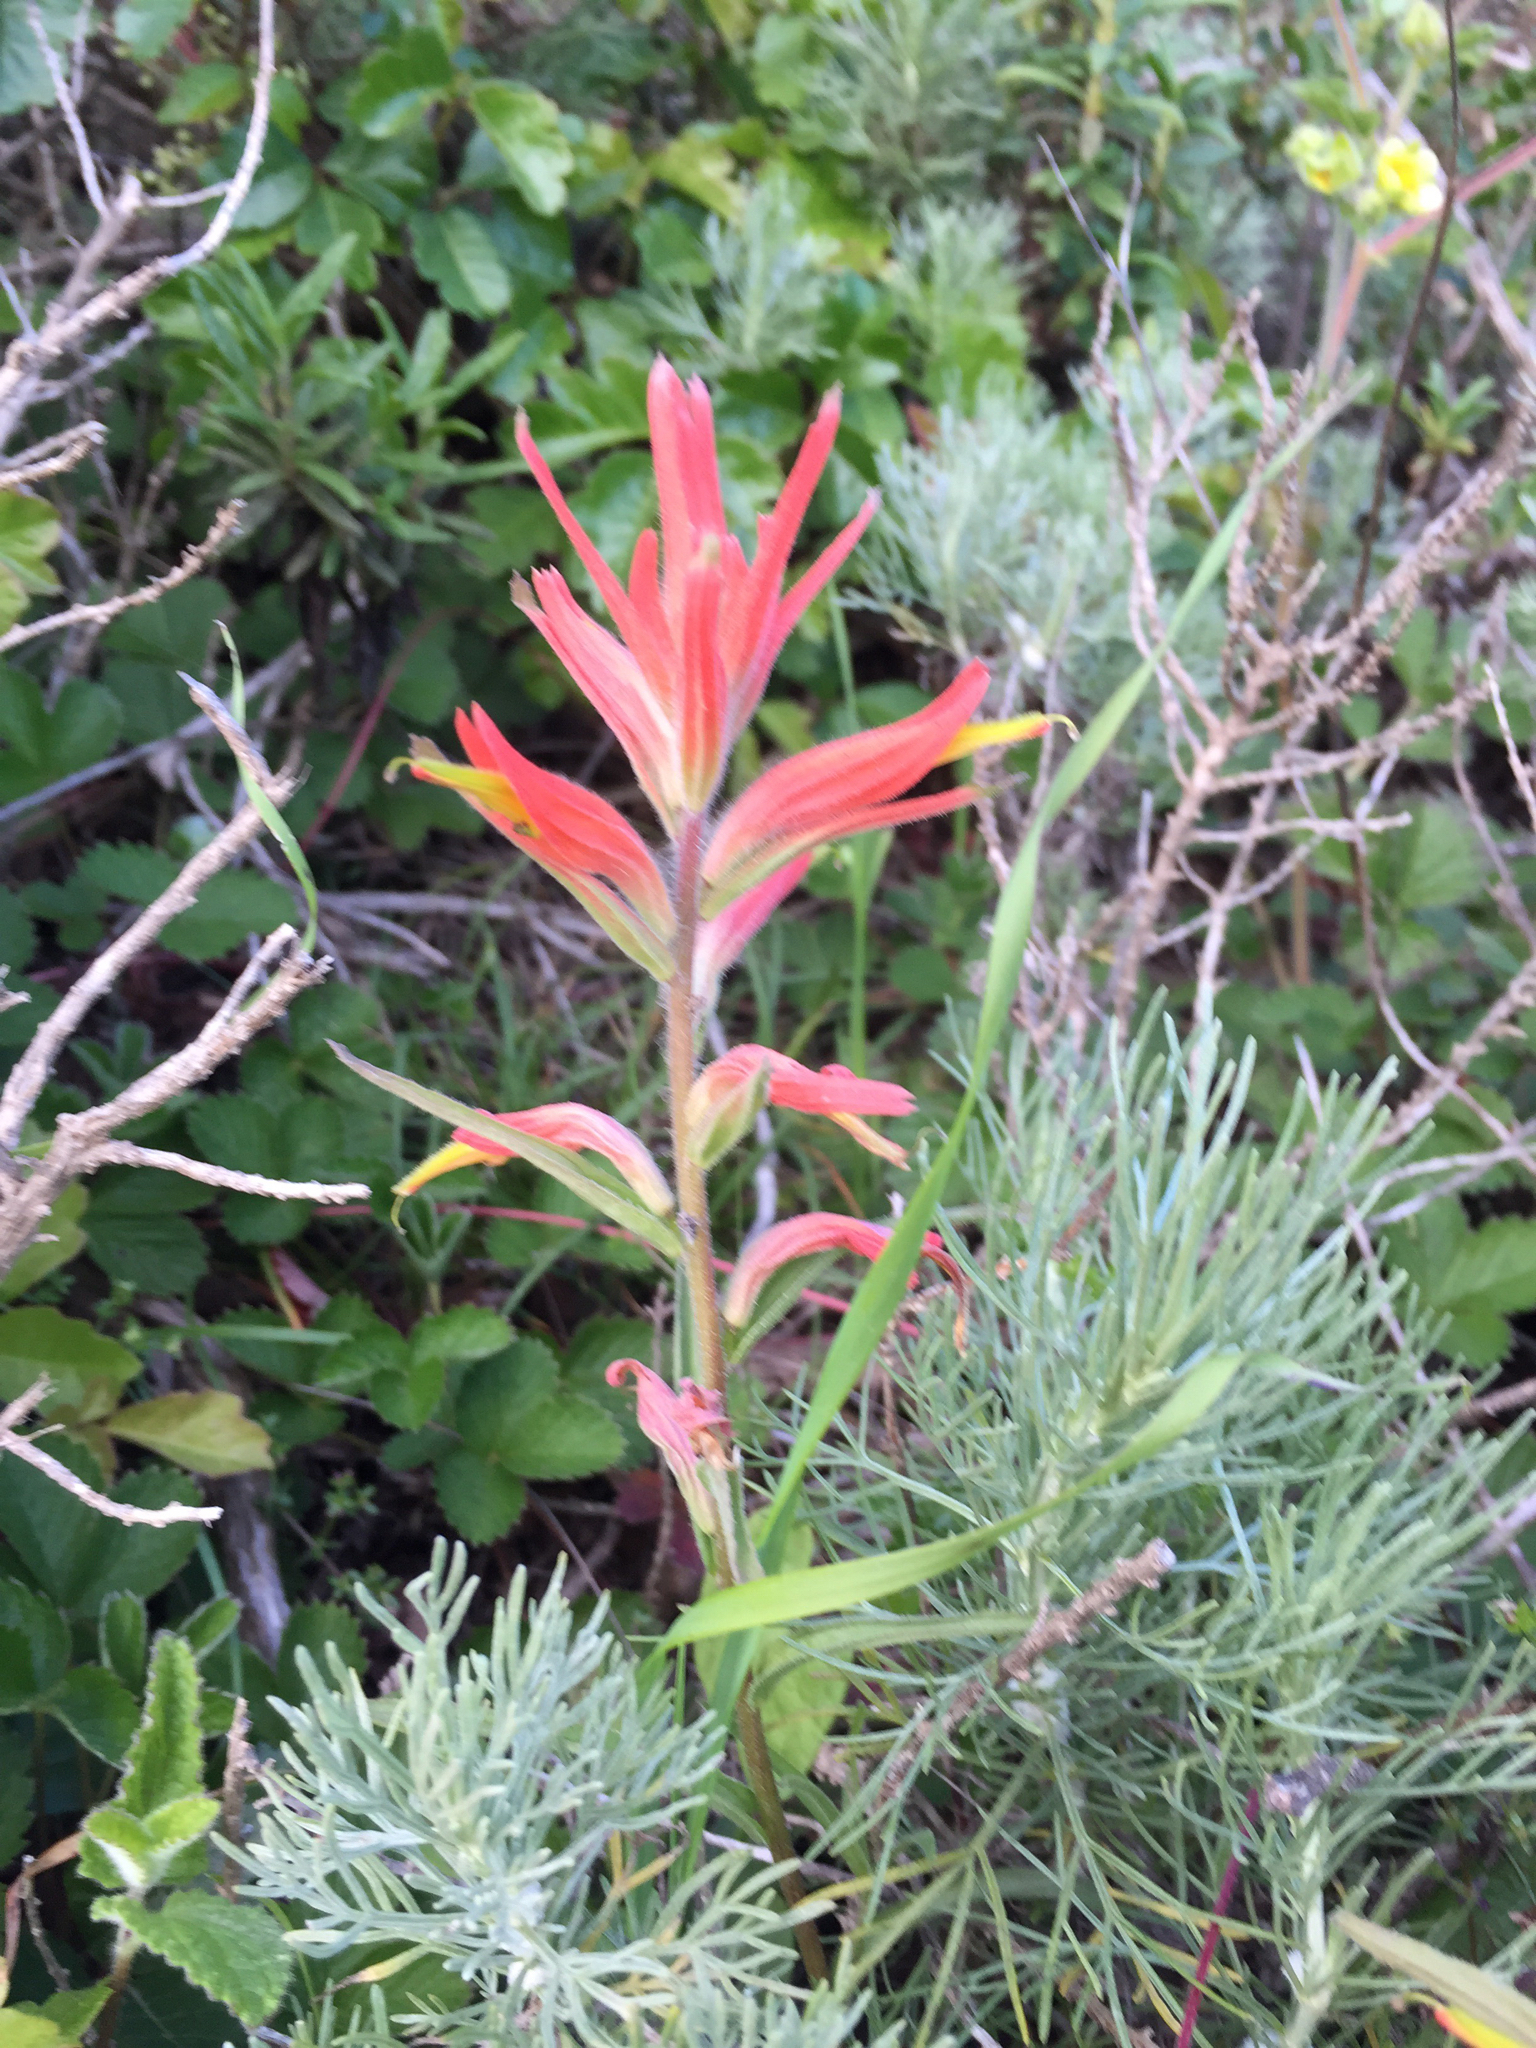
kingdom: Plantae
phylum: Tracheophyta
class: Magnoliopsida
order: Lamiales
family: Orobanchaceae
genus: Castilleja
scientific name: Castilleja subinclusa
